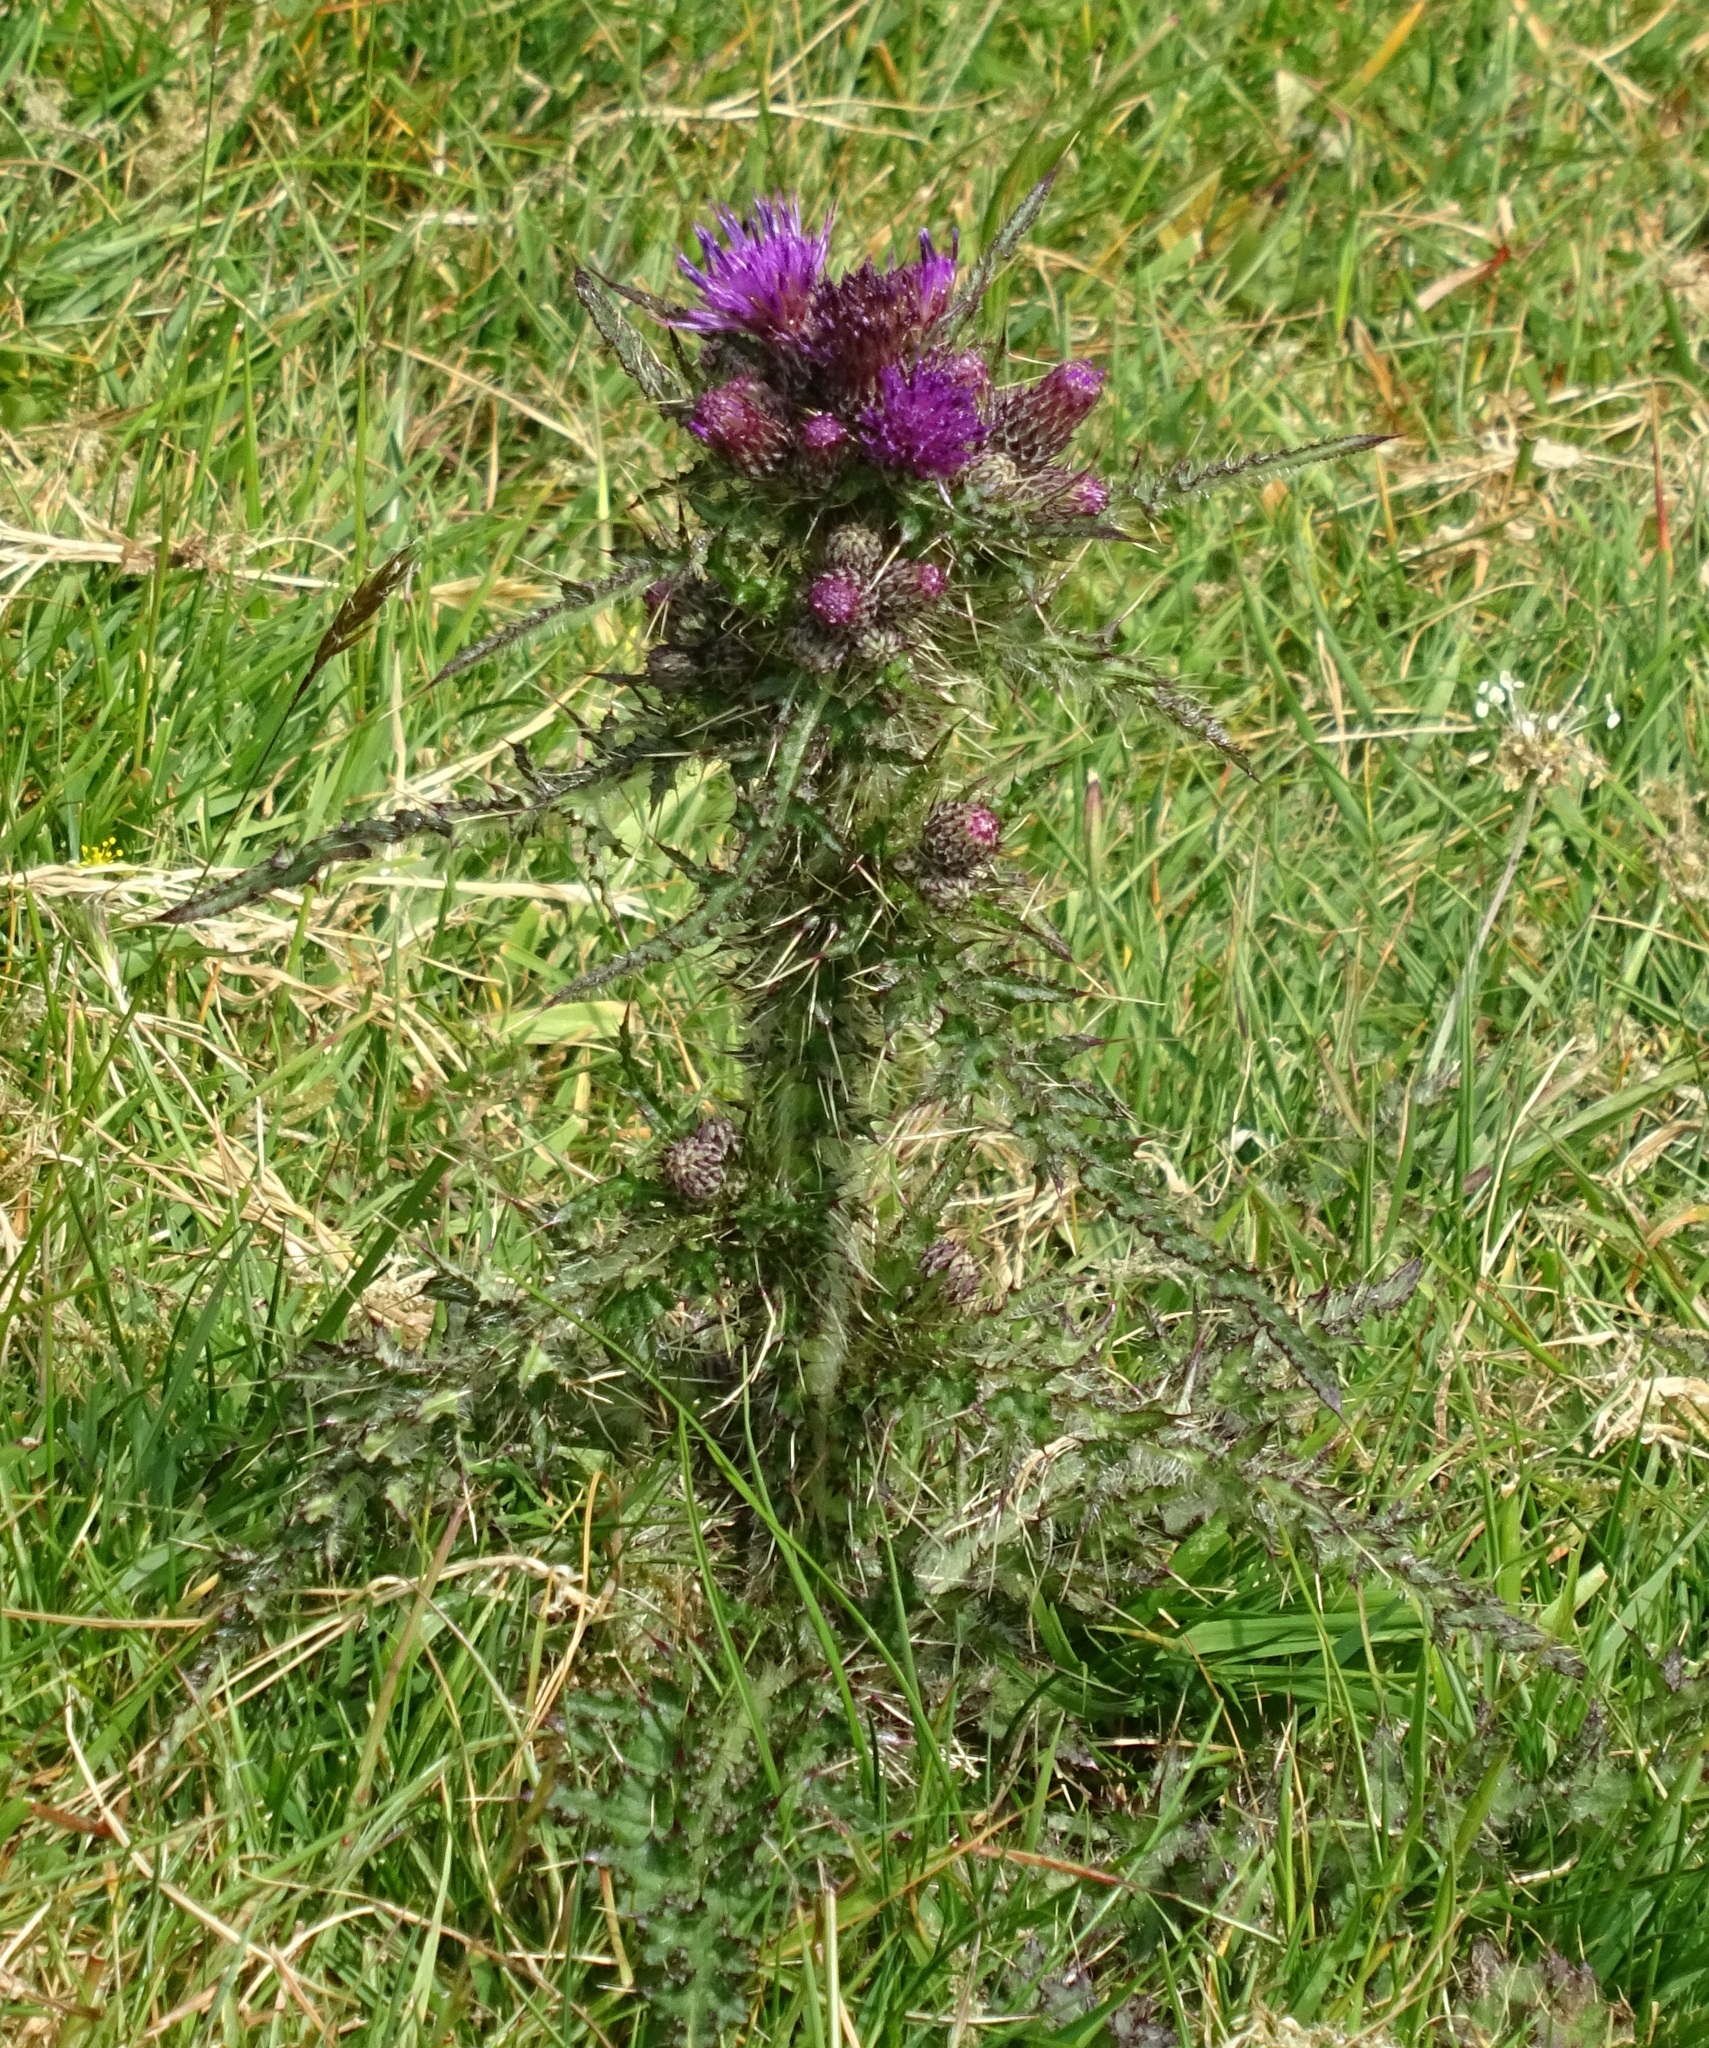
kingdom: Plantae
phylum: Tracheophyta
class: Magnoliopsida
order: Asterales
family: Asteraceae
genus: Cirsium
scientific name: Cirsium palustre
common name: Marsh thistle
